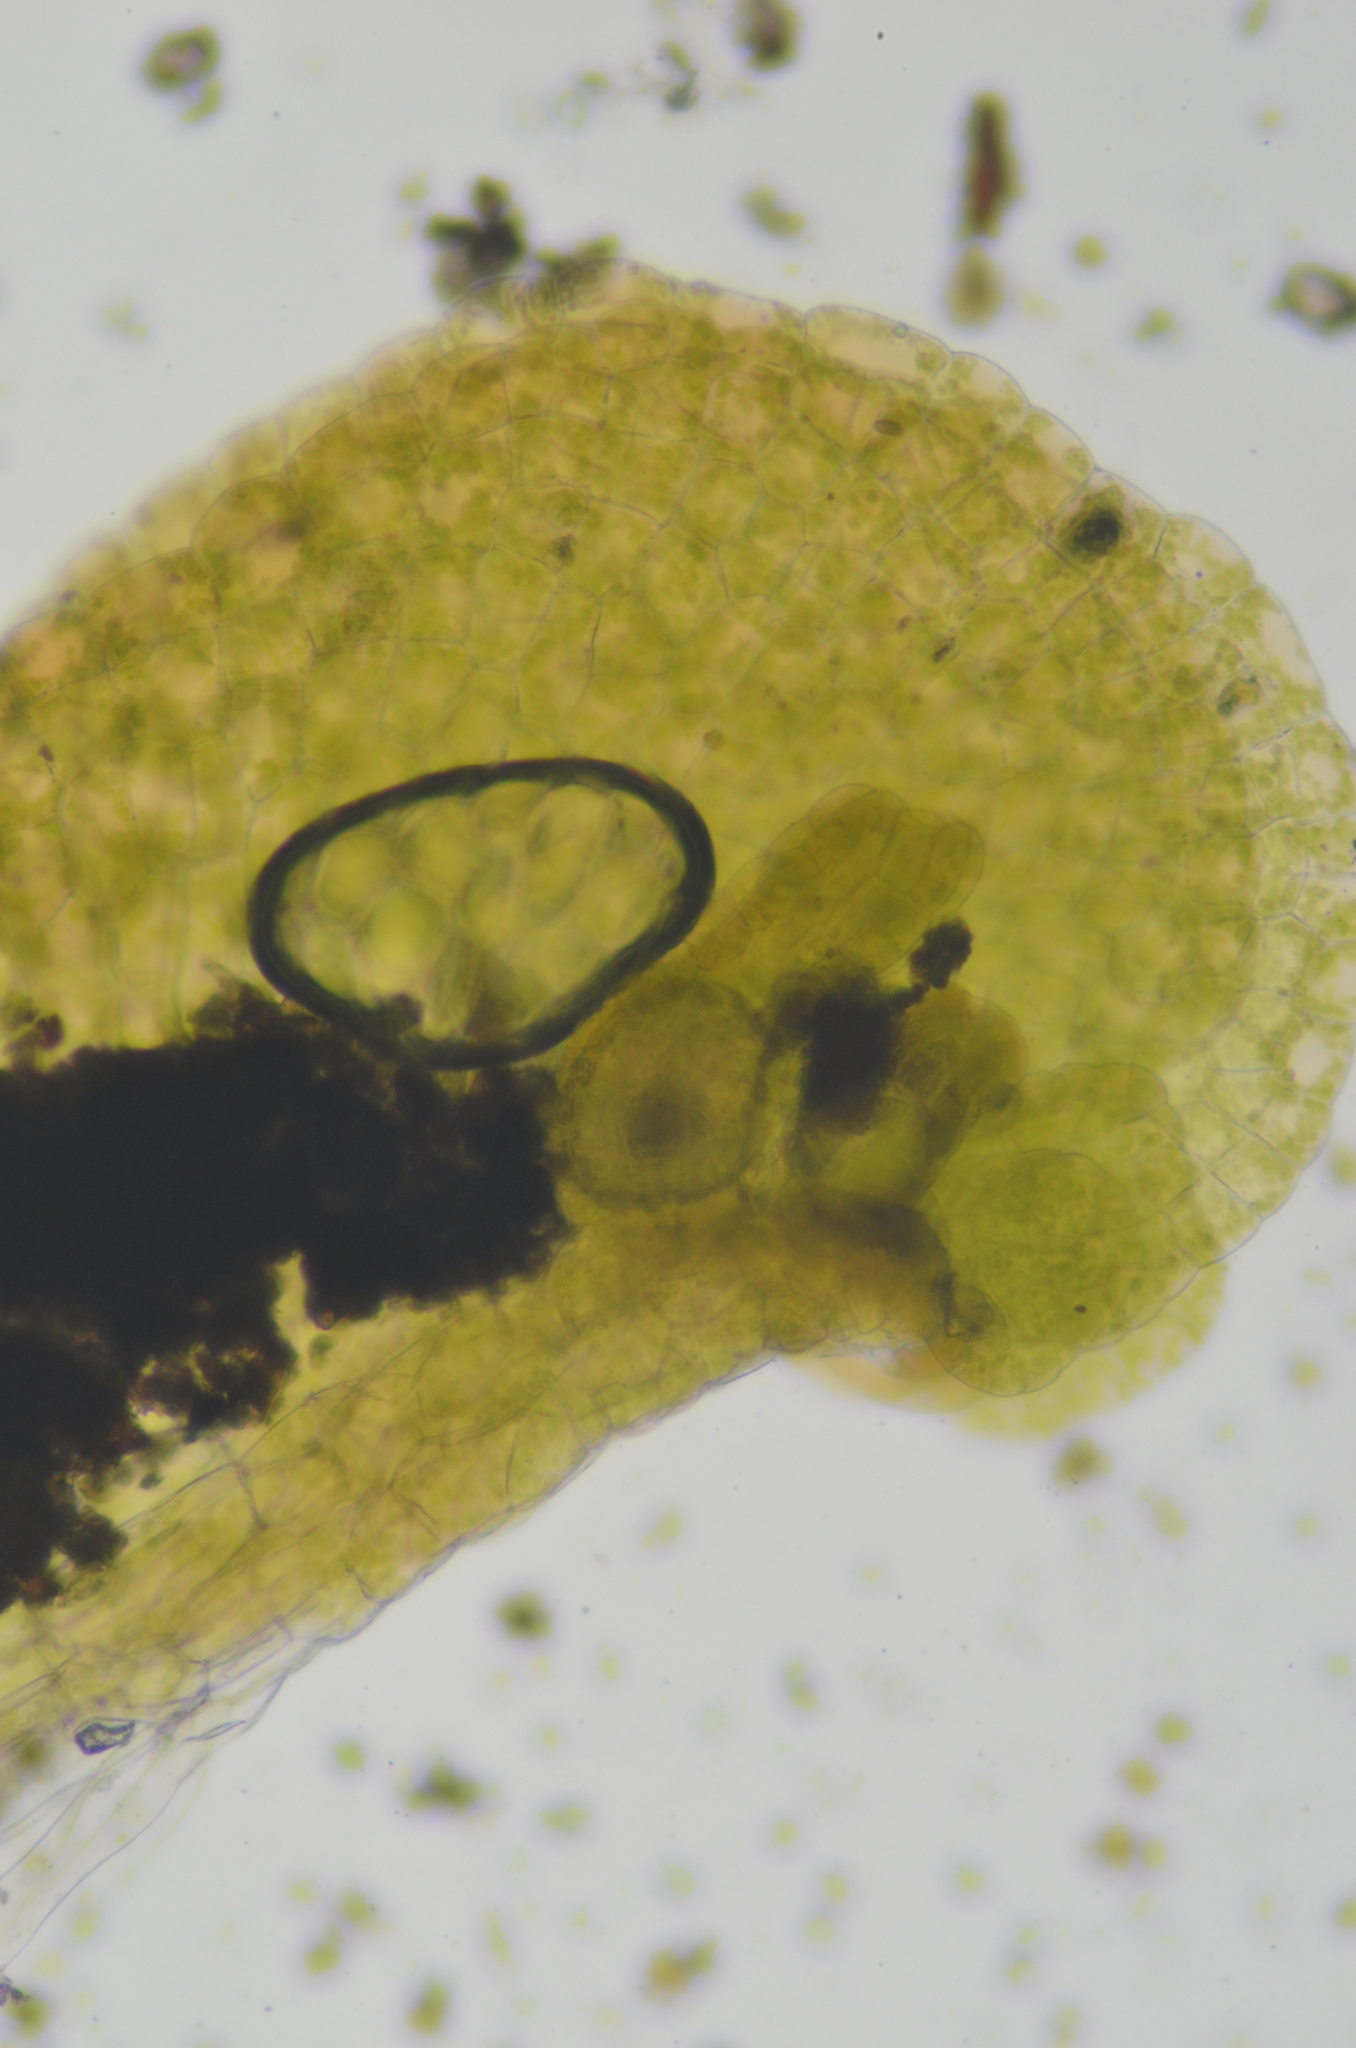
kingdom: Plantae
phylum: Marchantiophyta
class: Marchantiopsida
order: Sphaerocarpales
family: Sphaerocarpaceae
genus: Sphaerocarpos
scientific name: Sphaerocarpos texanus
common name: Texas balloonwort
